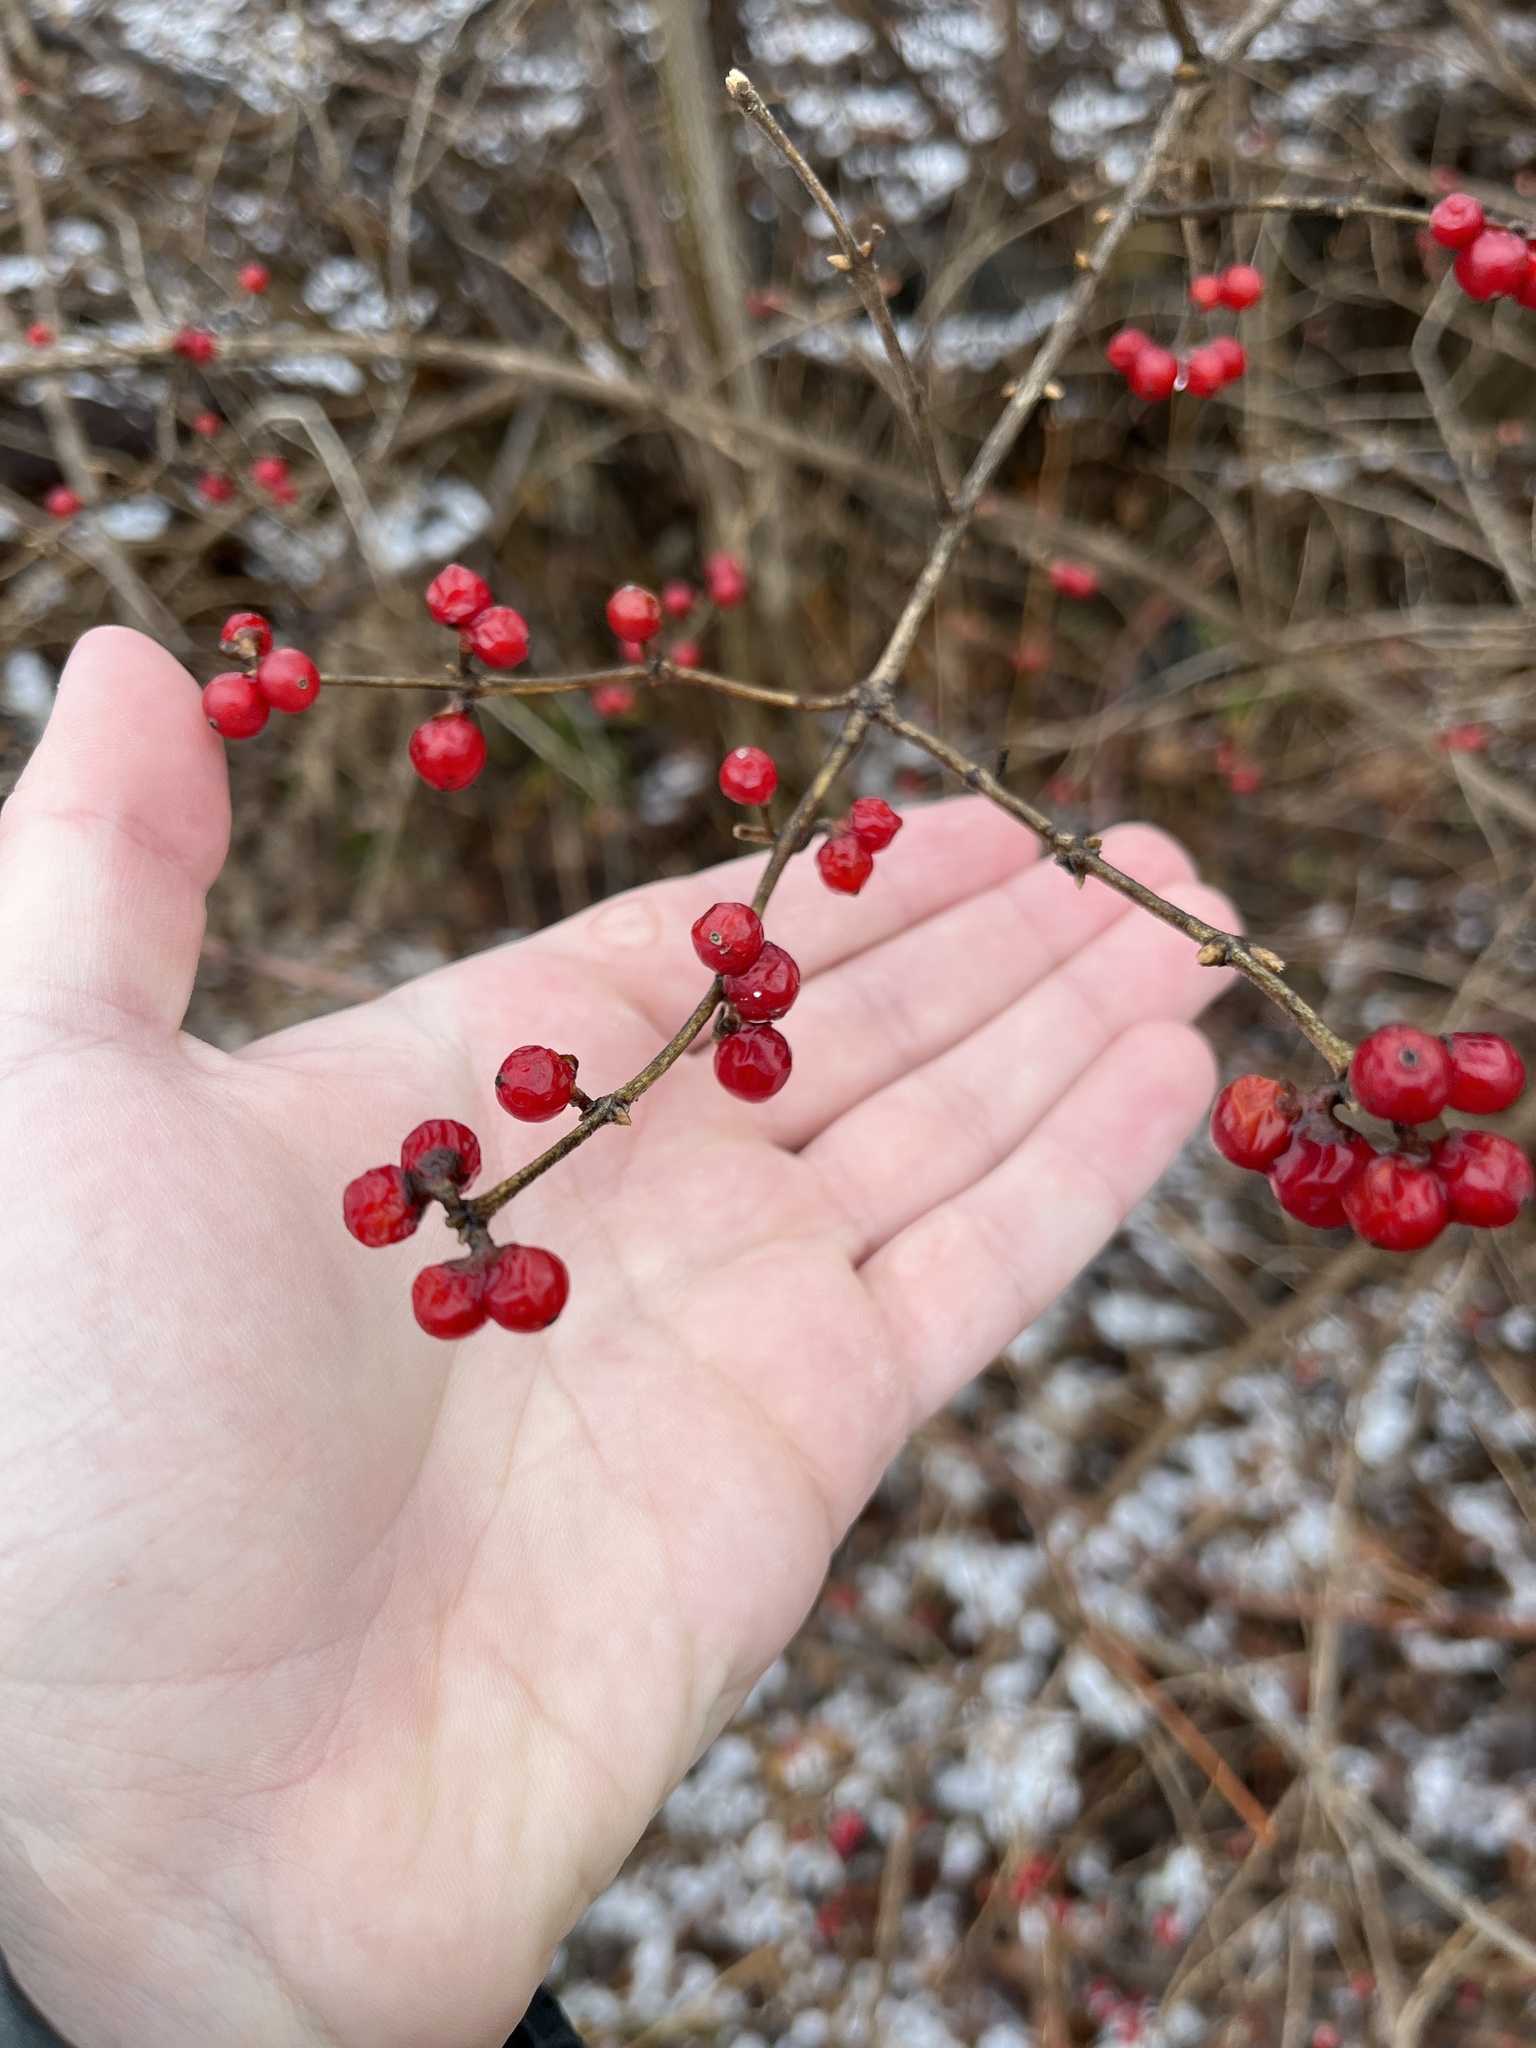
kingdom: Plantae
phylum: Tracheophyta
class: Magnoliopsida
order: Dipsacales
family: Caprifoliaceae
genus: Lonicera
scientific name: Lonicera maackii
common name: Amur honeysuckle
